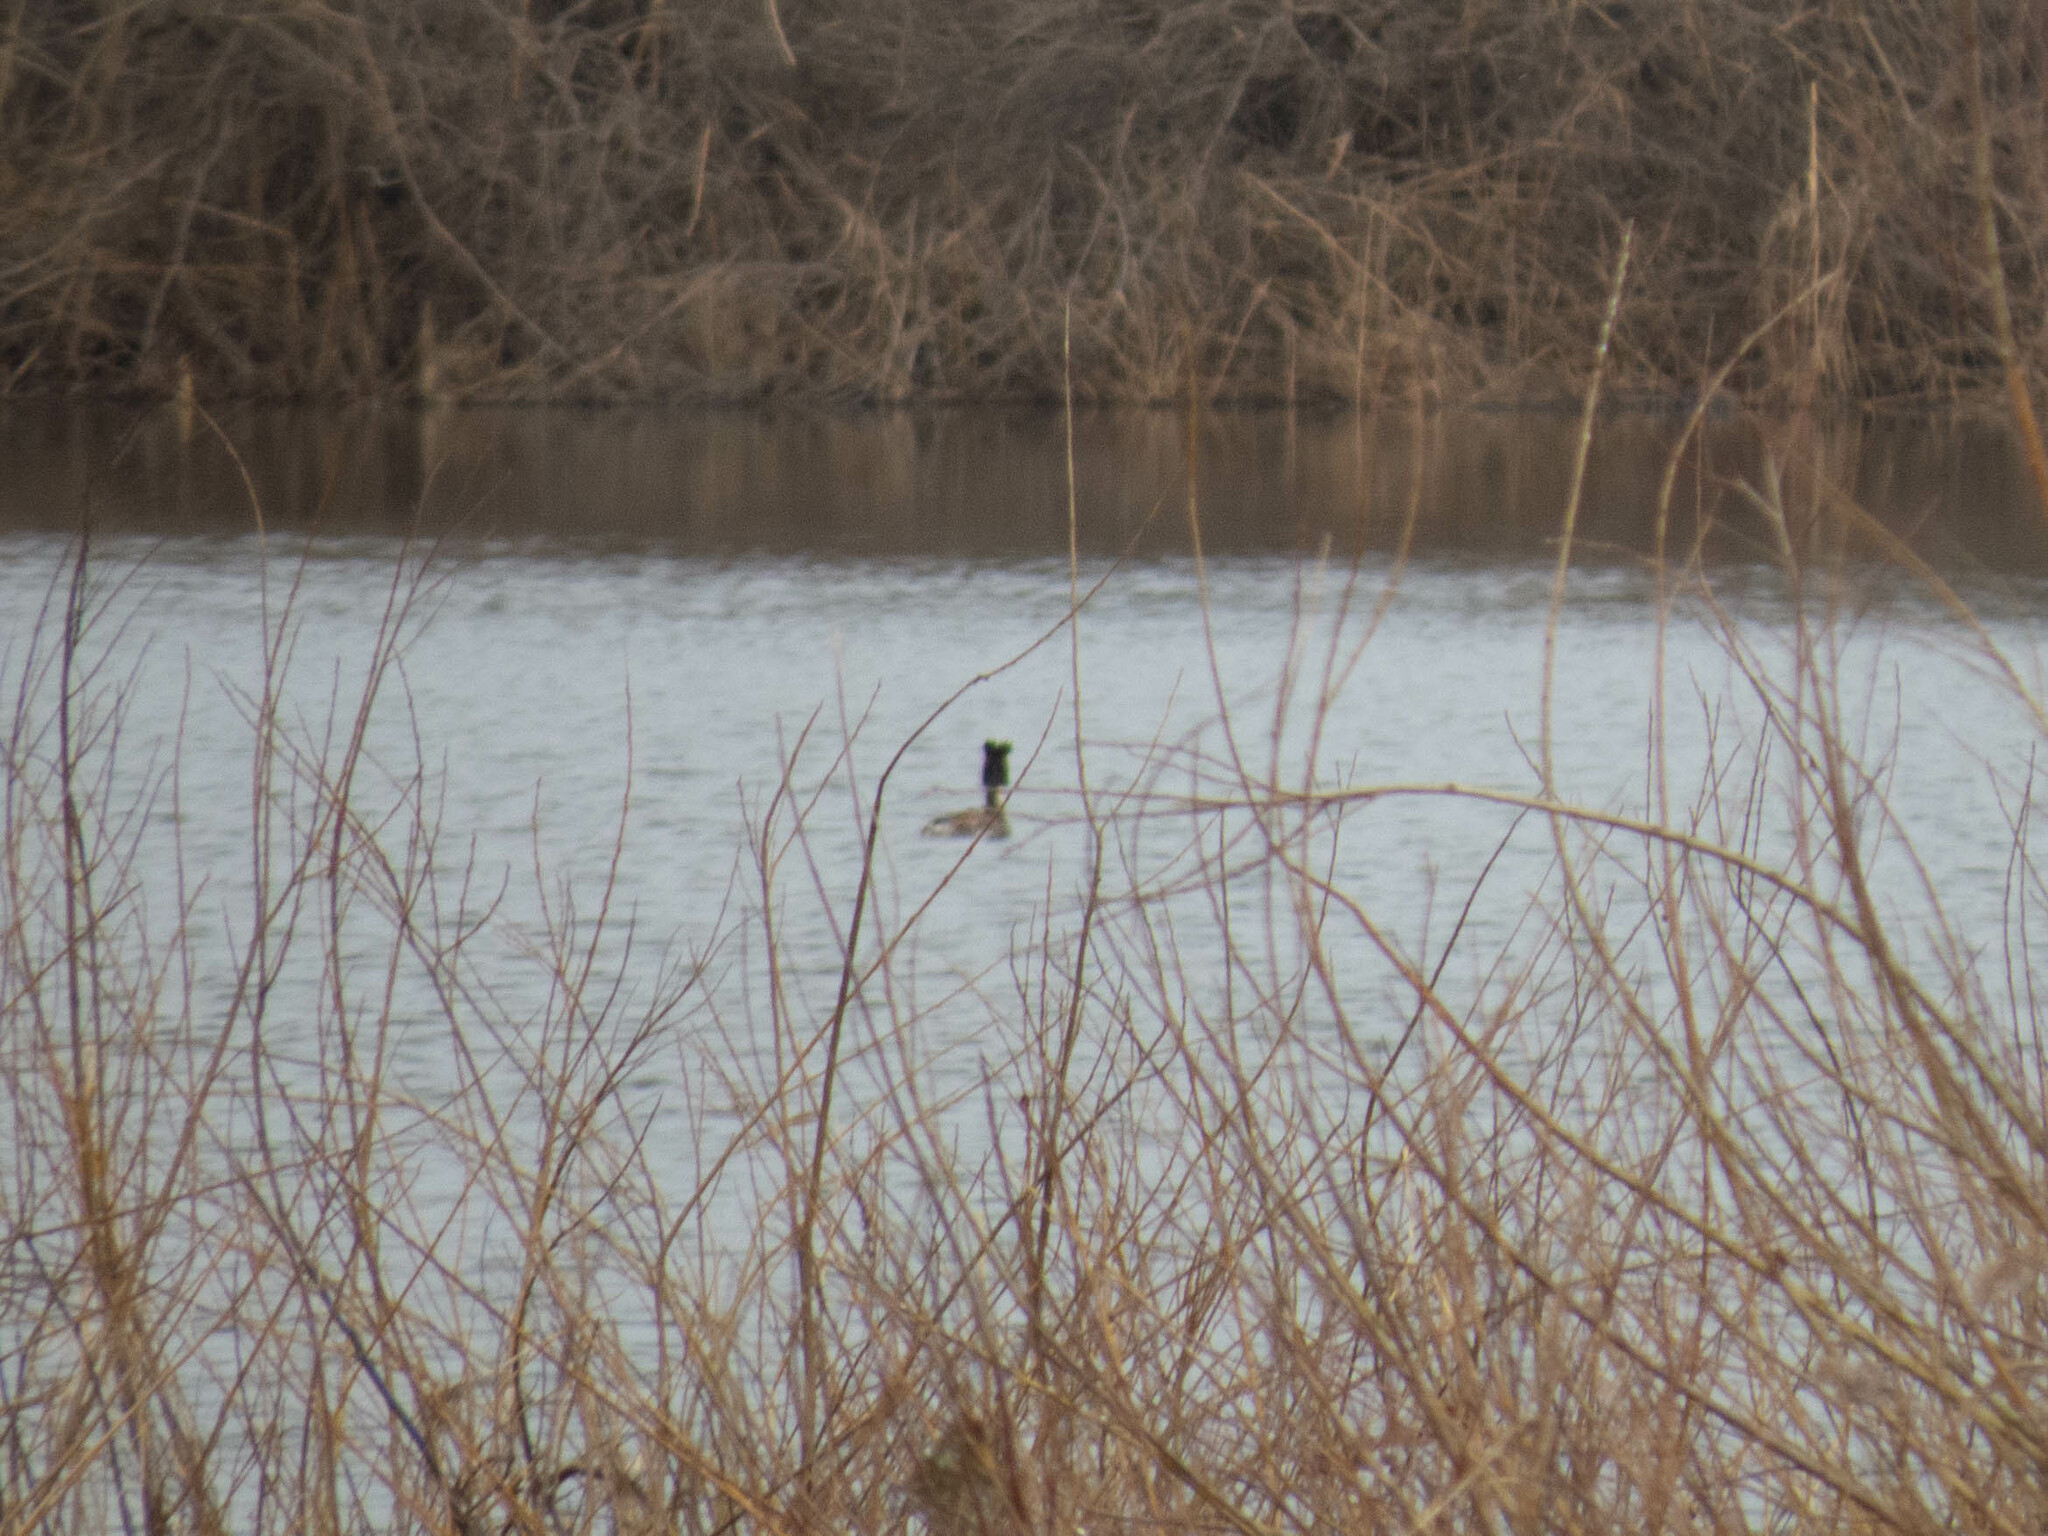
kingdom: Animalia
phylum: Chordata
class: Aves
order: Podicipediformes
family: Podicipedidae
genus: Podiceps
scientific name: Podiceps cristatus
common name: Great crested grebe
